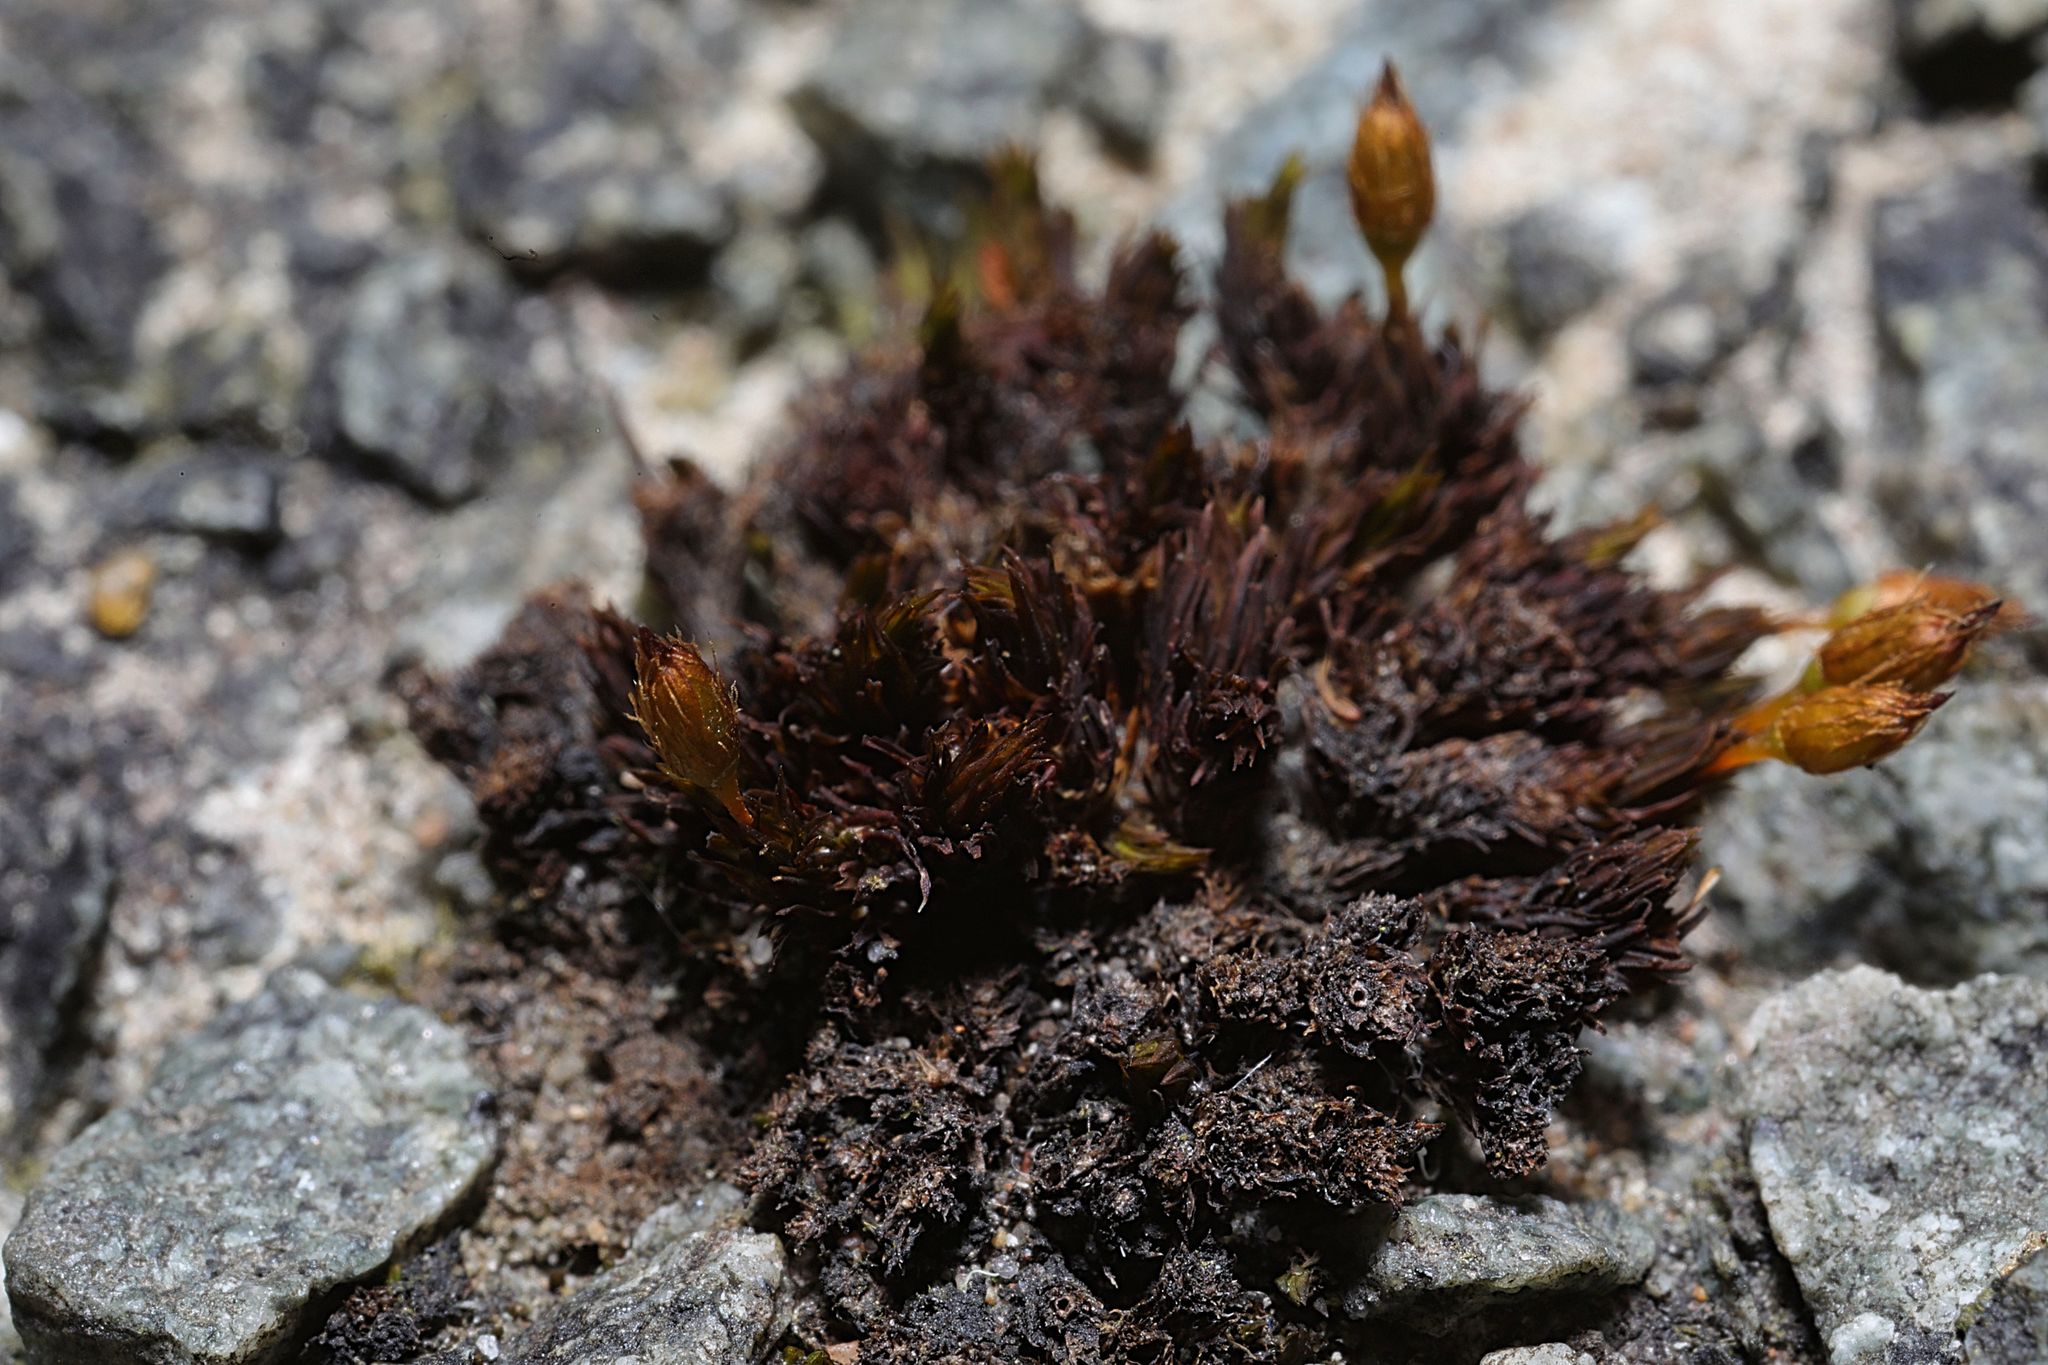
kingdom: Plantae
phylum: Bryophyta
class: Bryopsida
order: Orthotrichales
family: Orthotrichaceae
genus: Orthotrichum
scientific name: Orthotrichum anomalum
